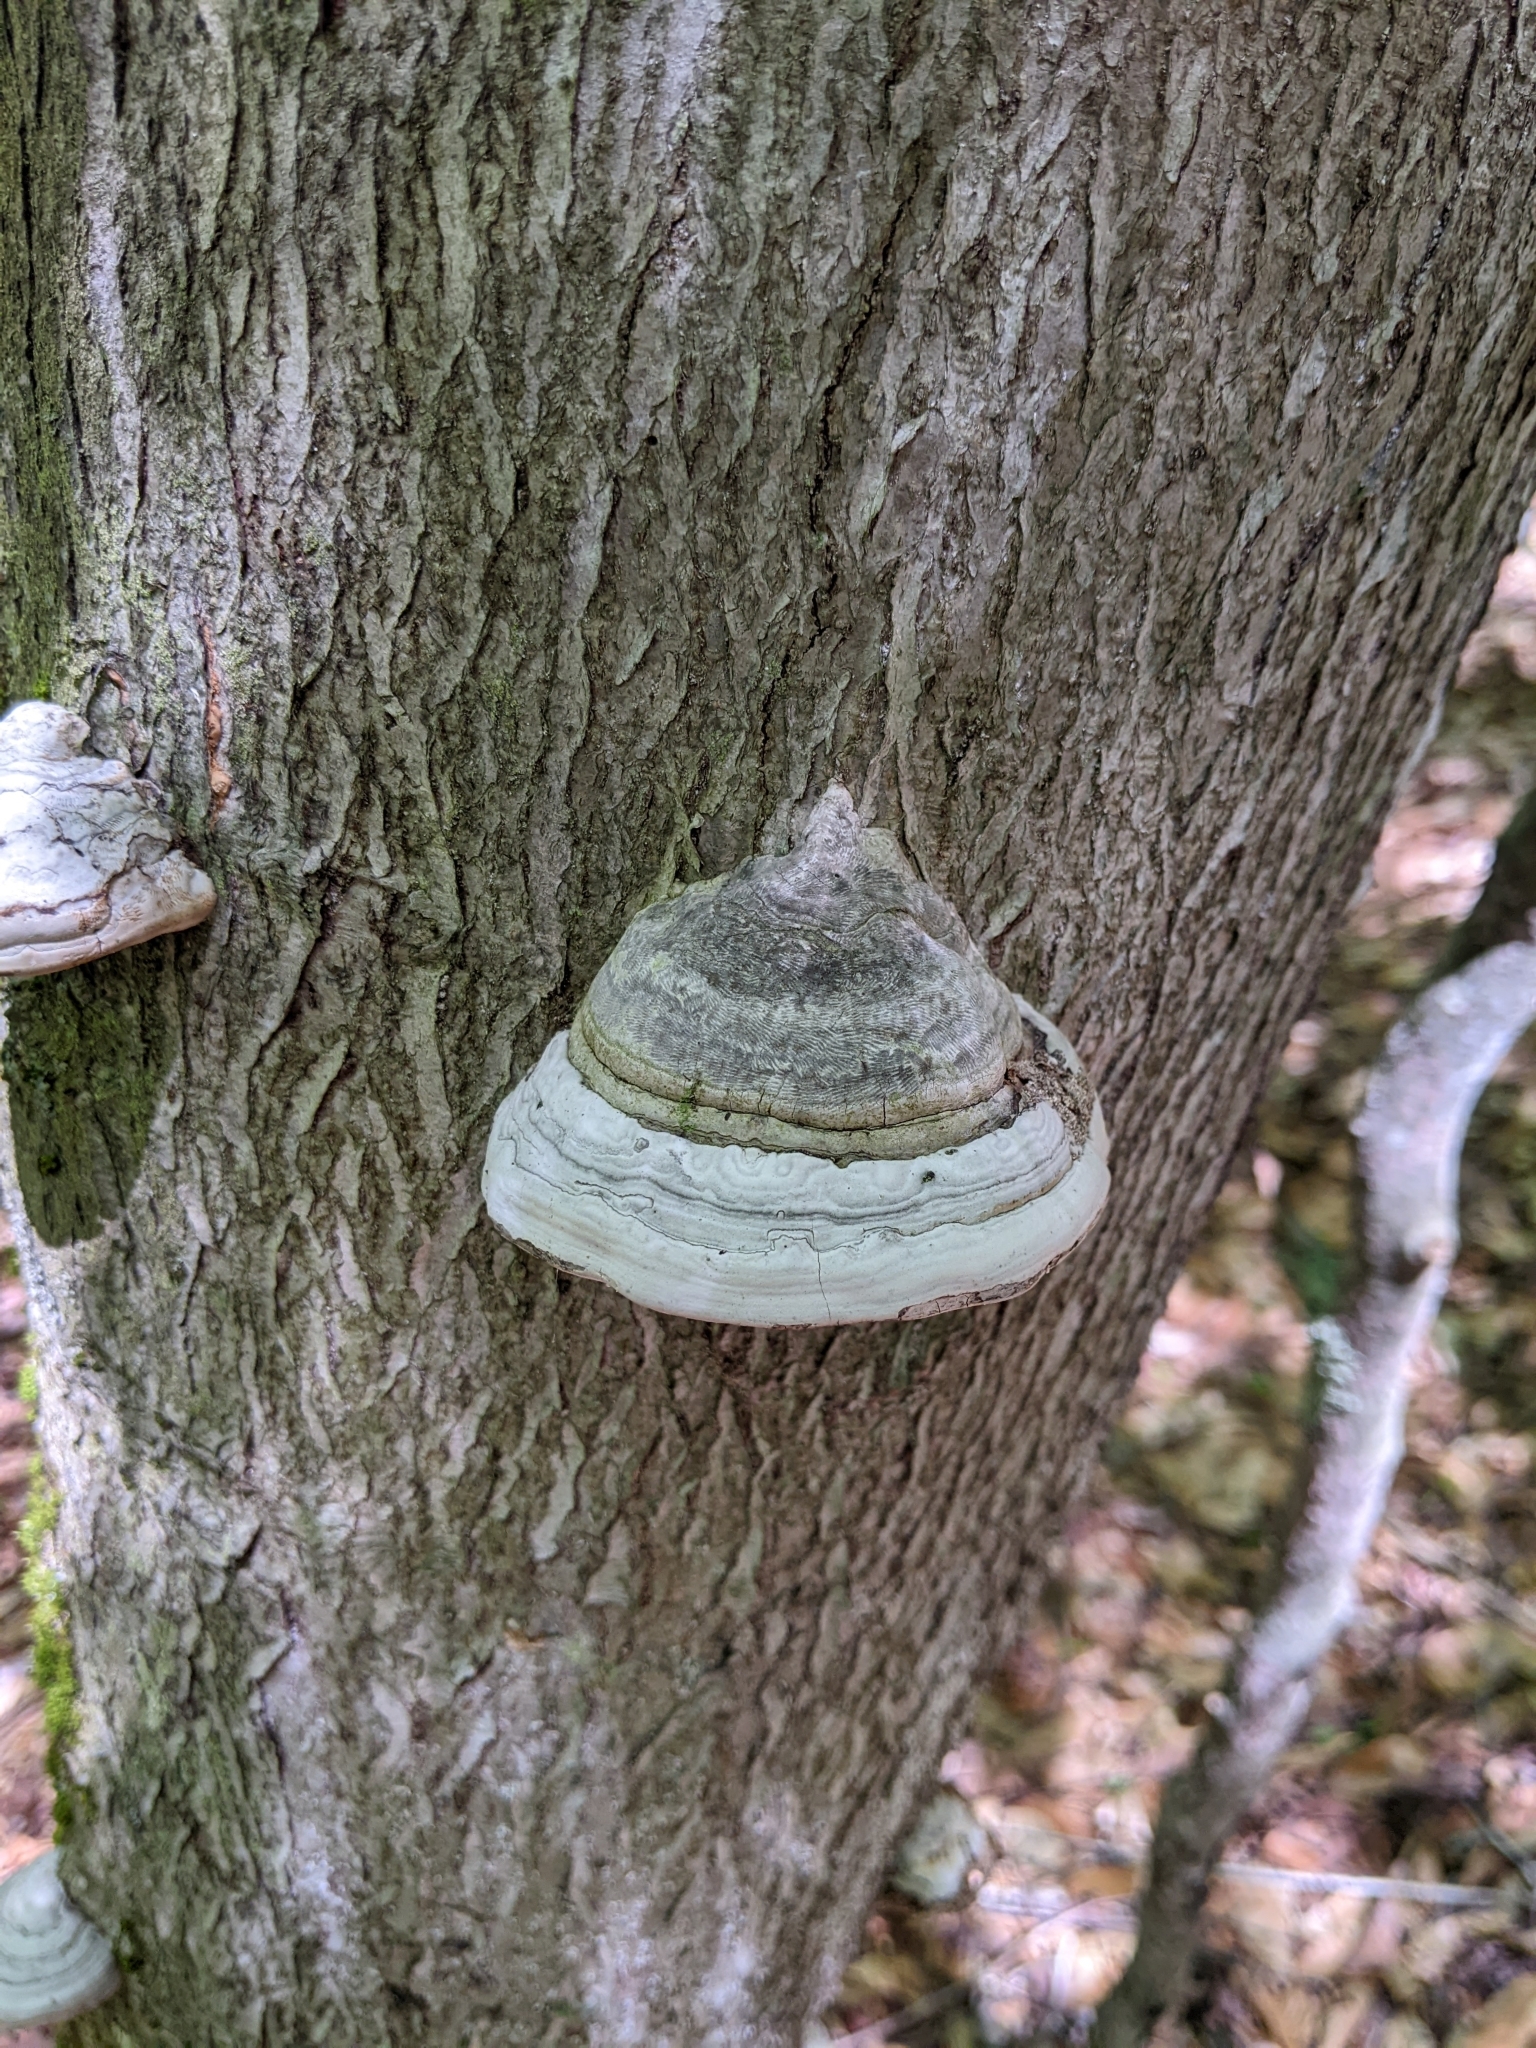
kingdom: Fungi
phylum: Basidiomycota
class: Agaricomycetes
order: Polyporales
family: Polyporaceae
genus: Fomes
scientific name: Fomes fomentarius
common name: Hoof fungus
